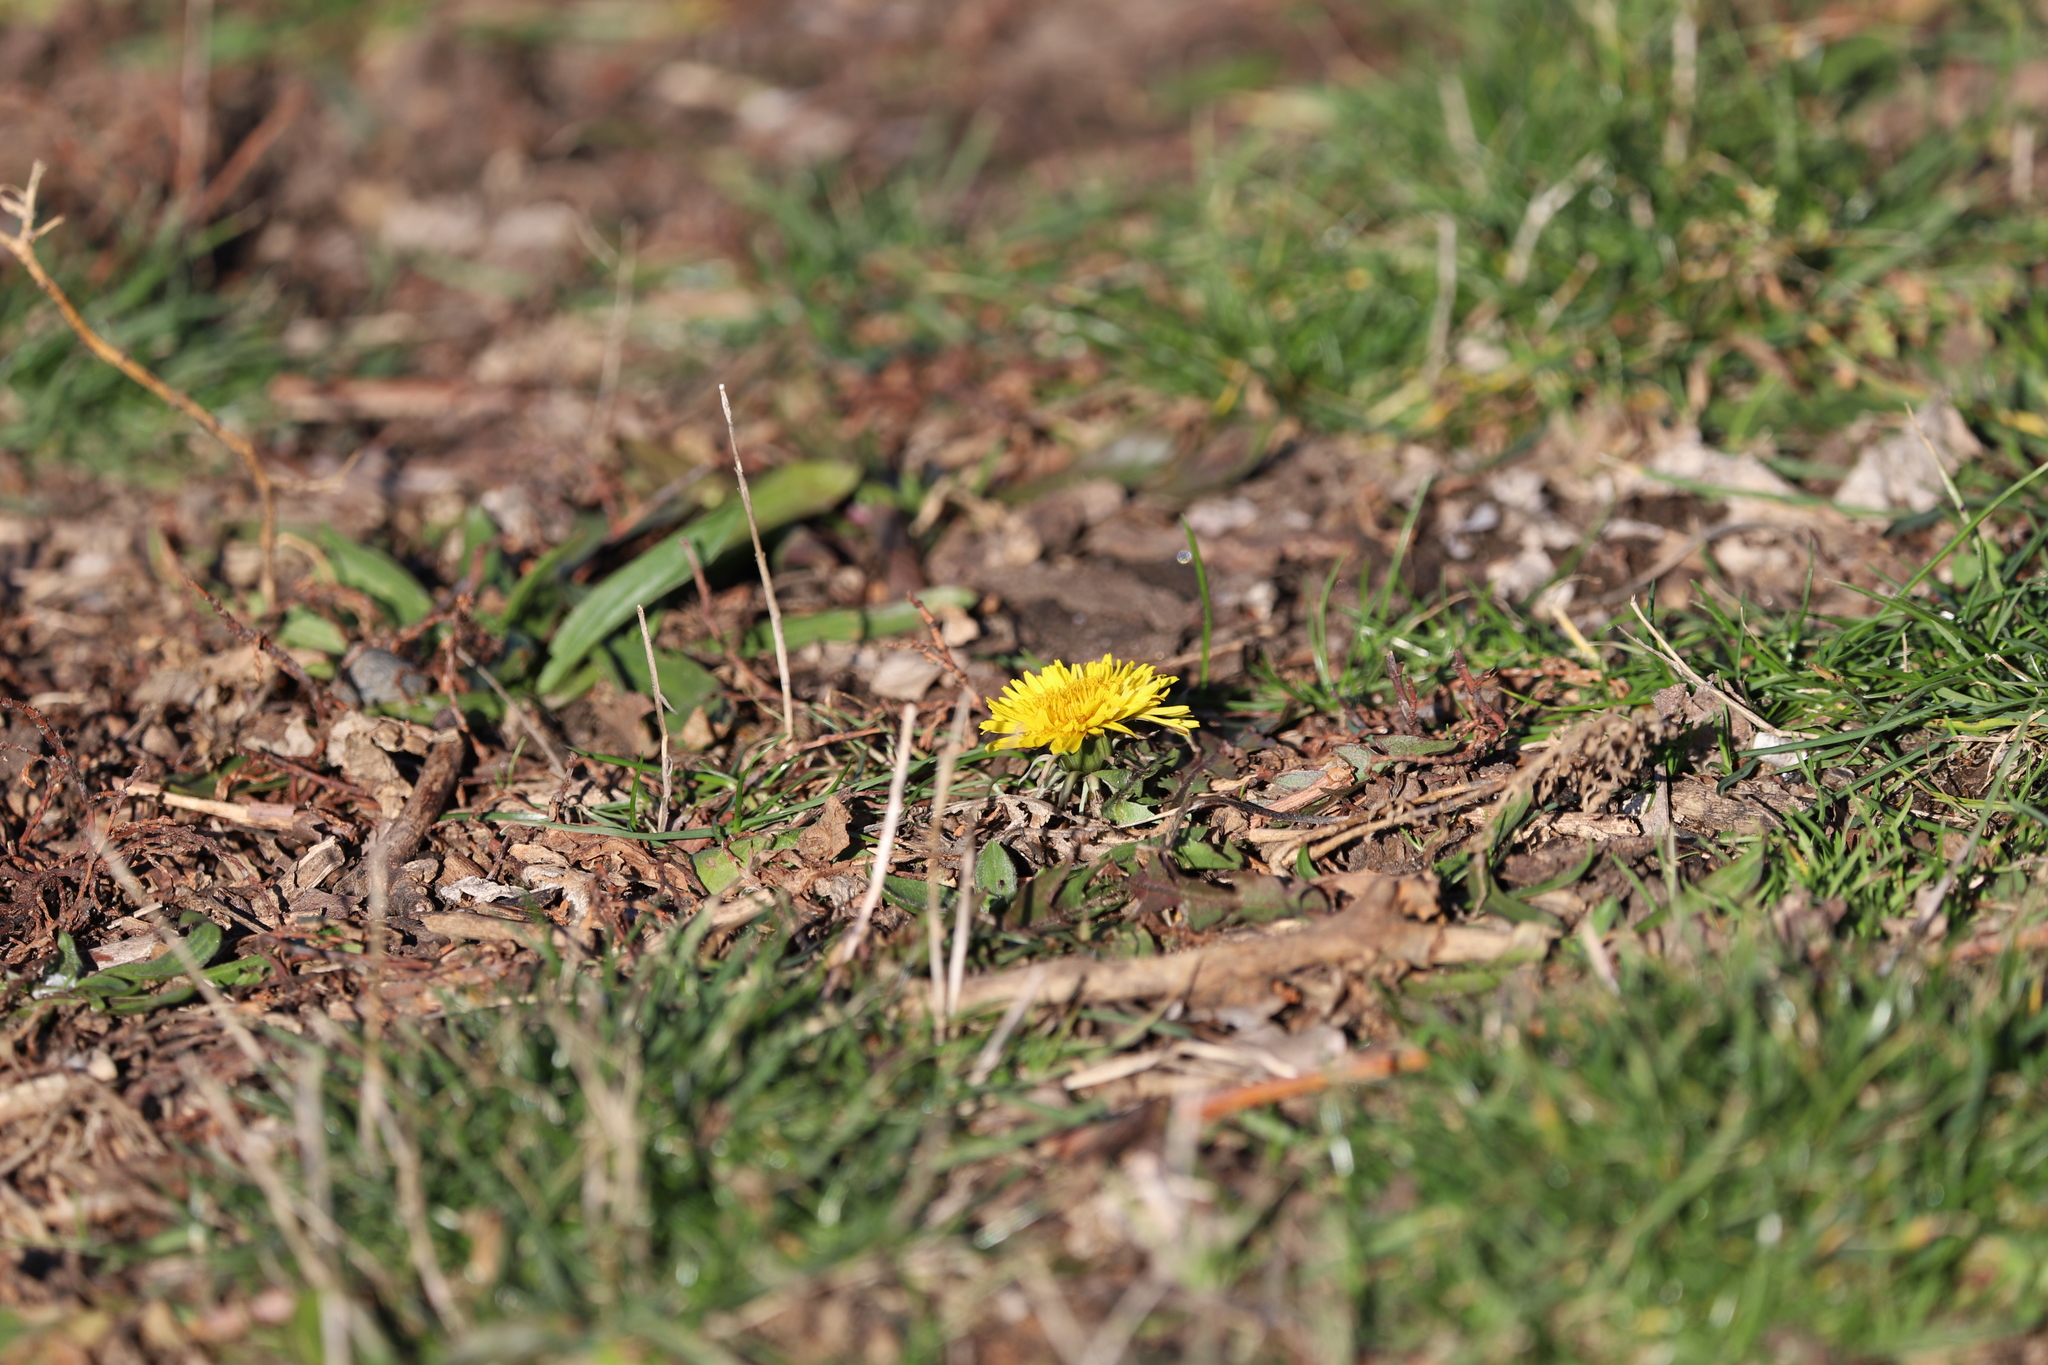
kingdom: Plantae
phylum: Tracheophyta
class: Magnoliopsida
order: Asterales
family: Asteraceae
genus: Taraxacum
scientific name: Taraxacum officinale
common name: Common dandelion
